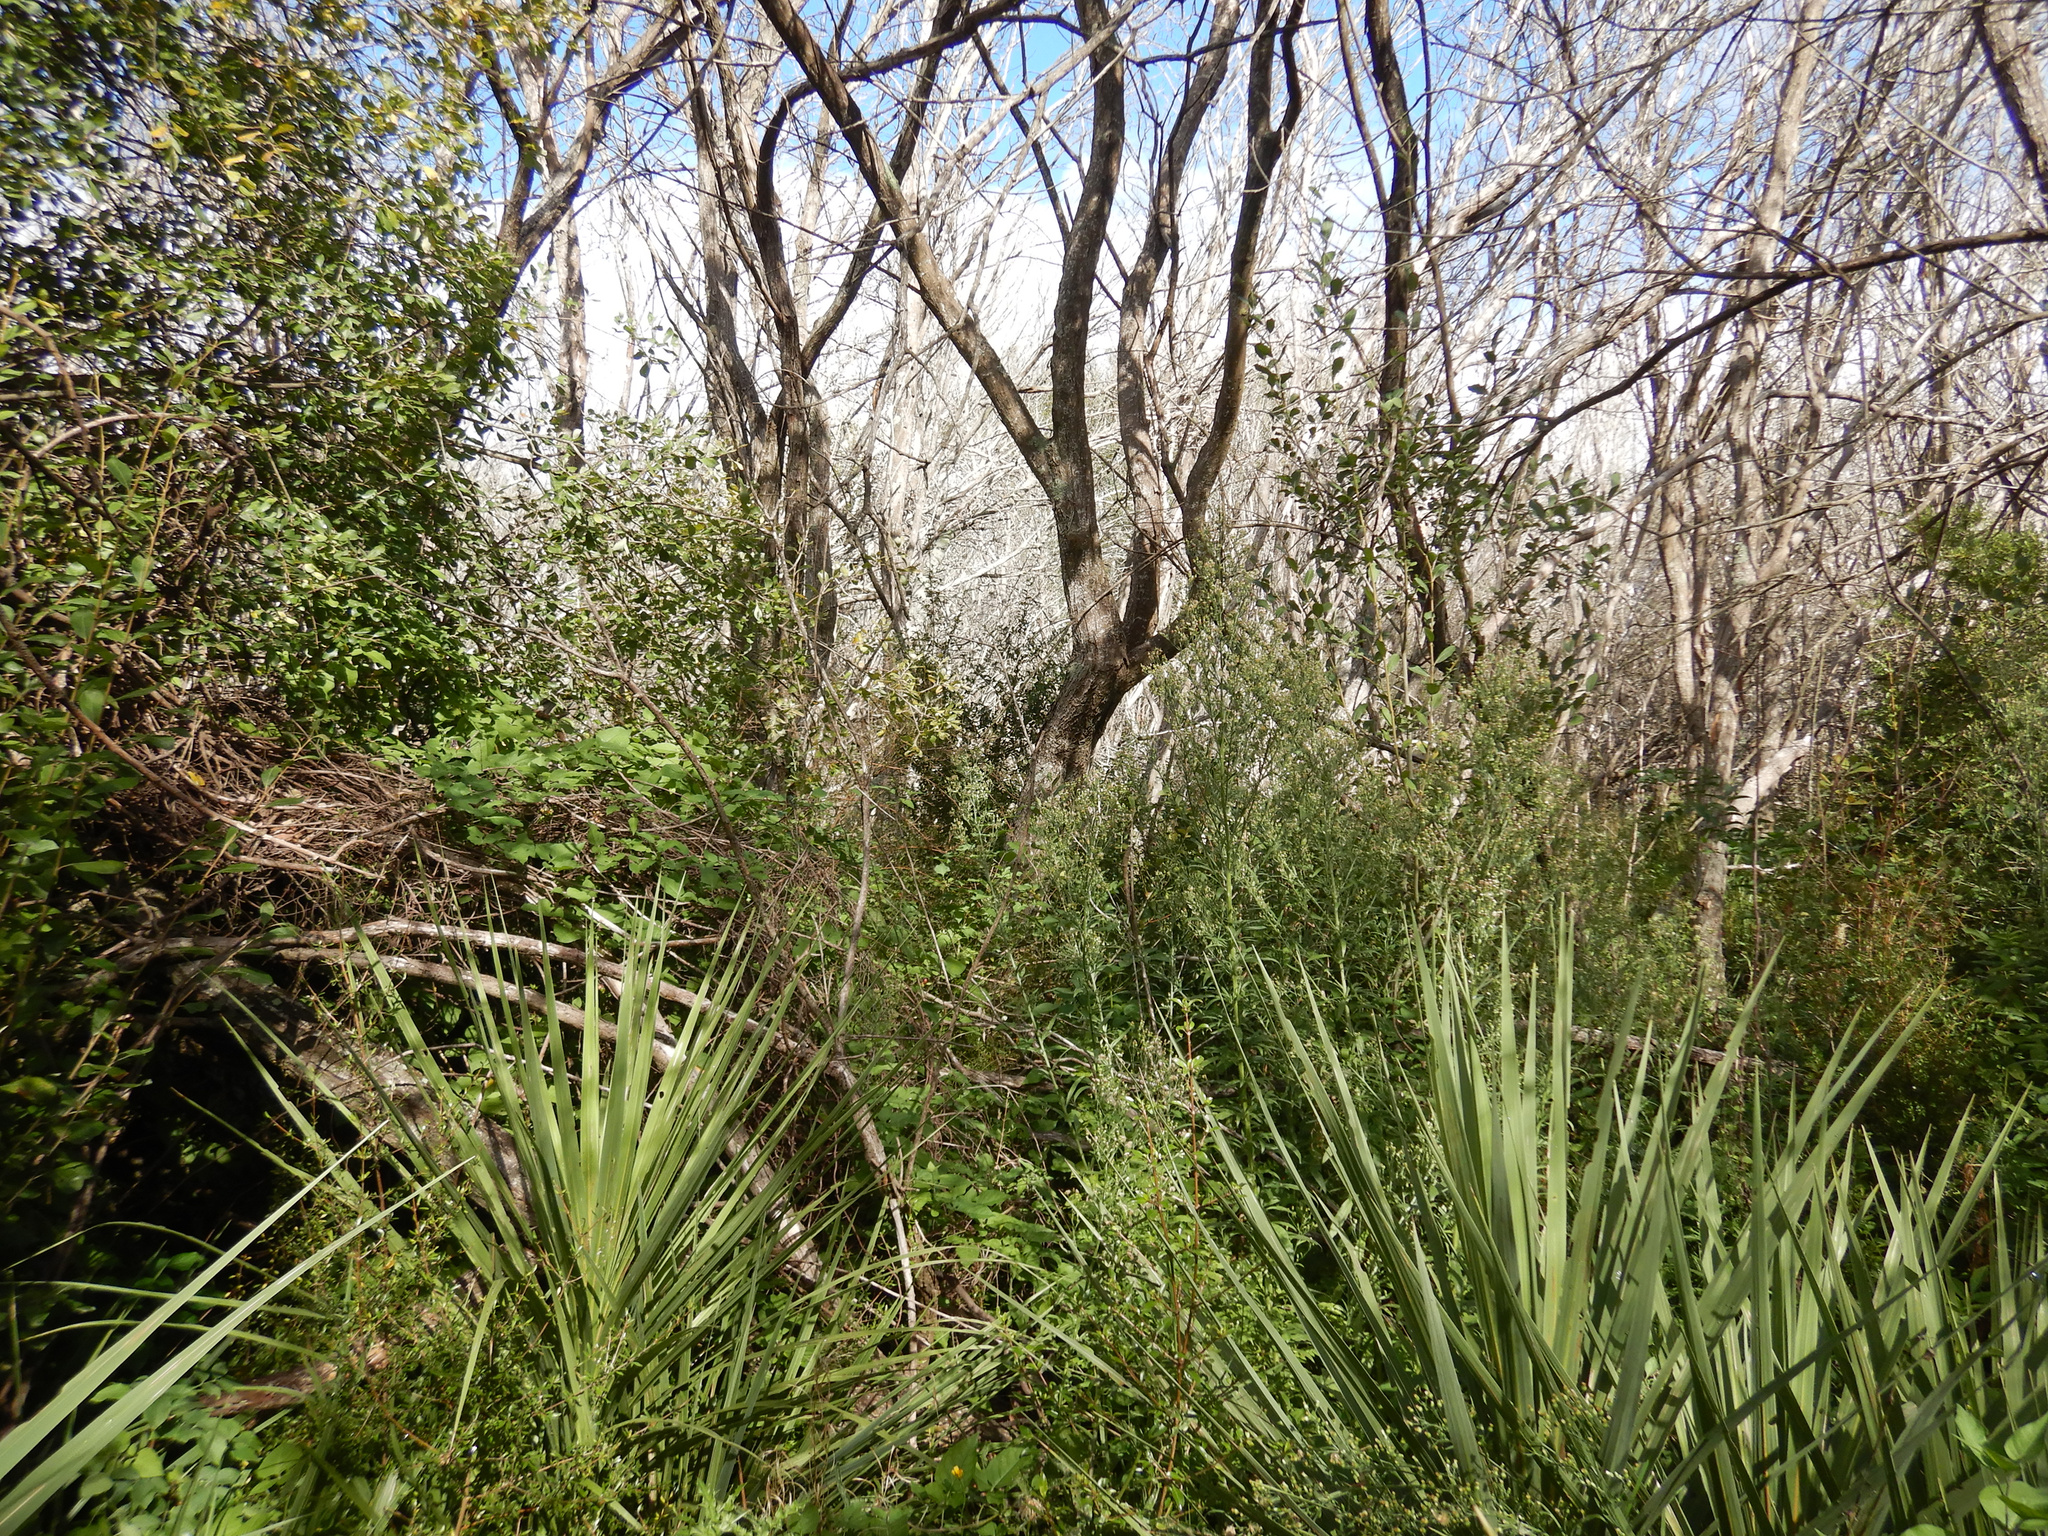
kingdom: Plantae
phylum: Tracheophyta
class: Liliopsida
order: Asparagales
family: Asparagaceae
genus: Cordyline
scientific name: Cordyline australis
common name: Cabbage-palm
